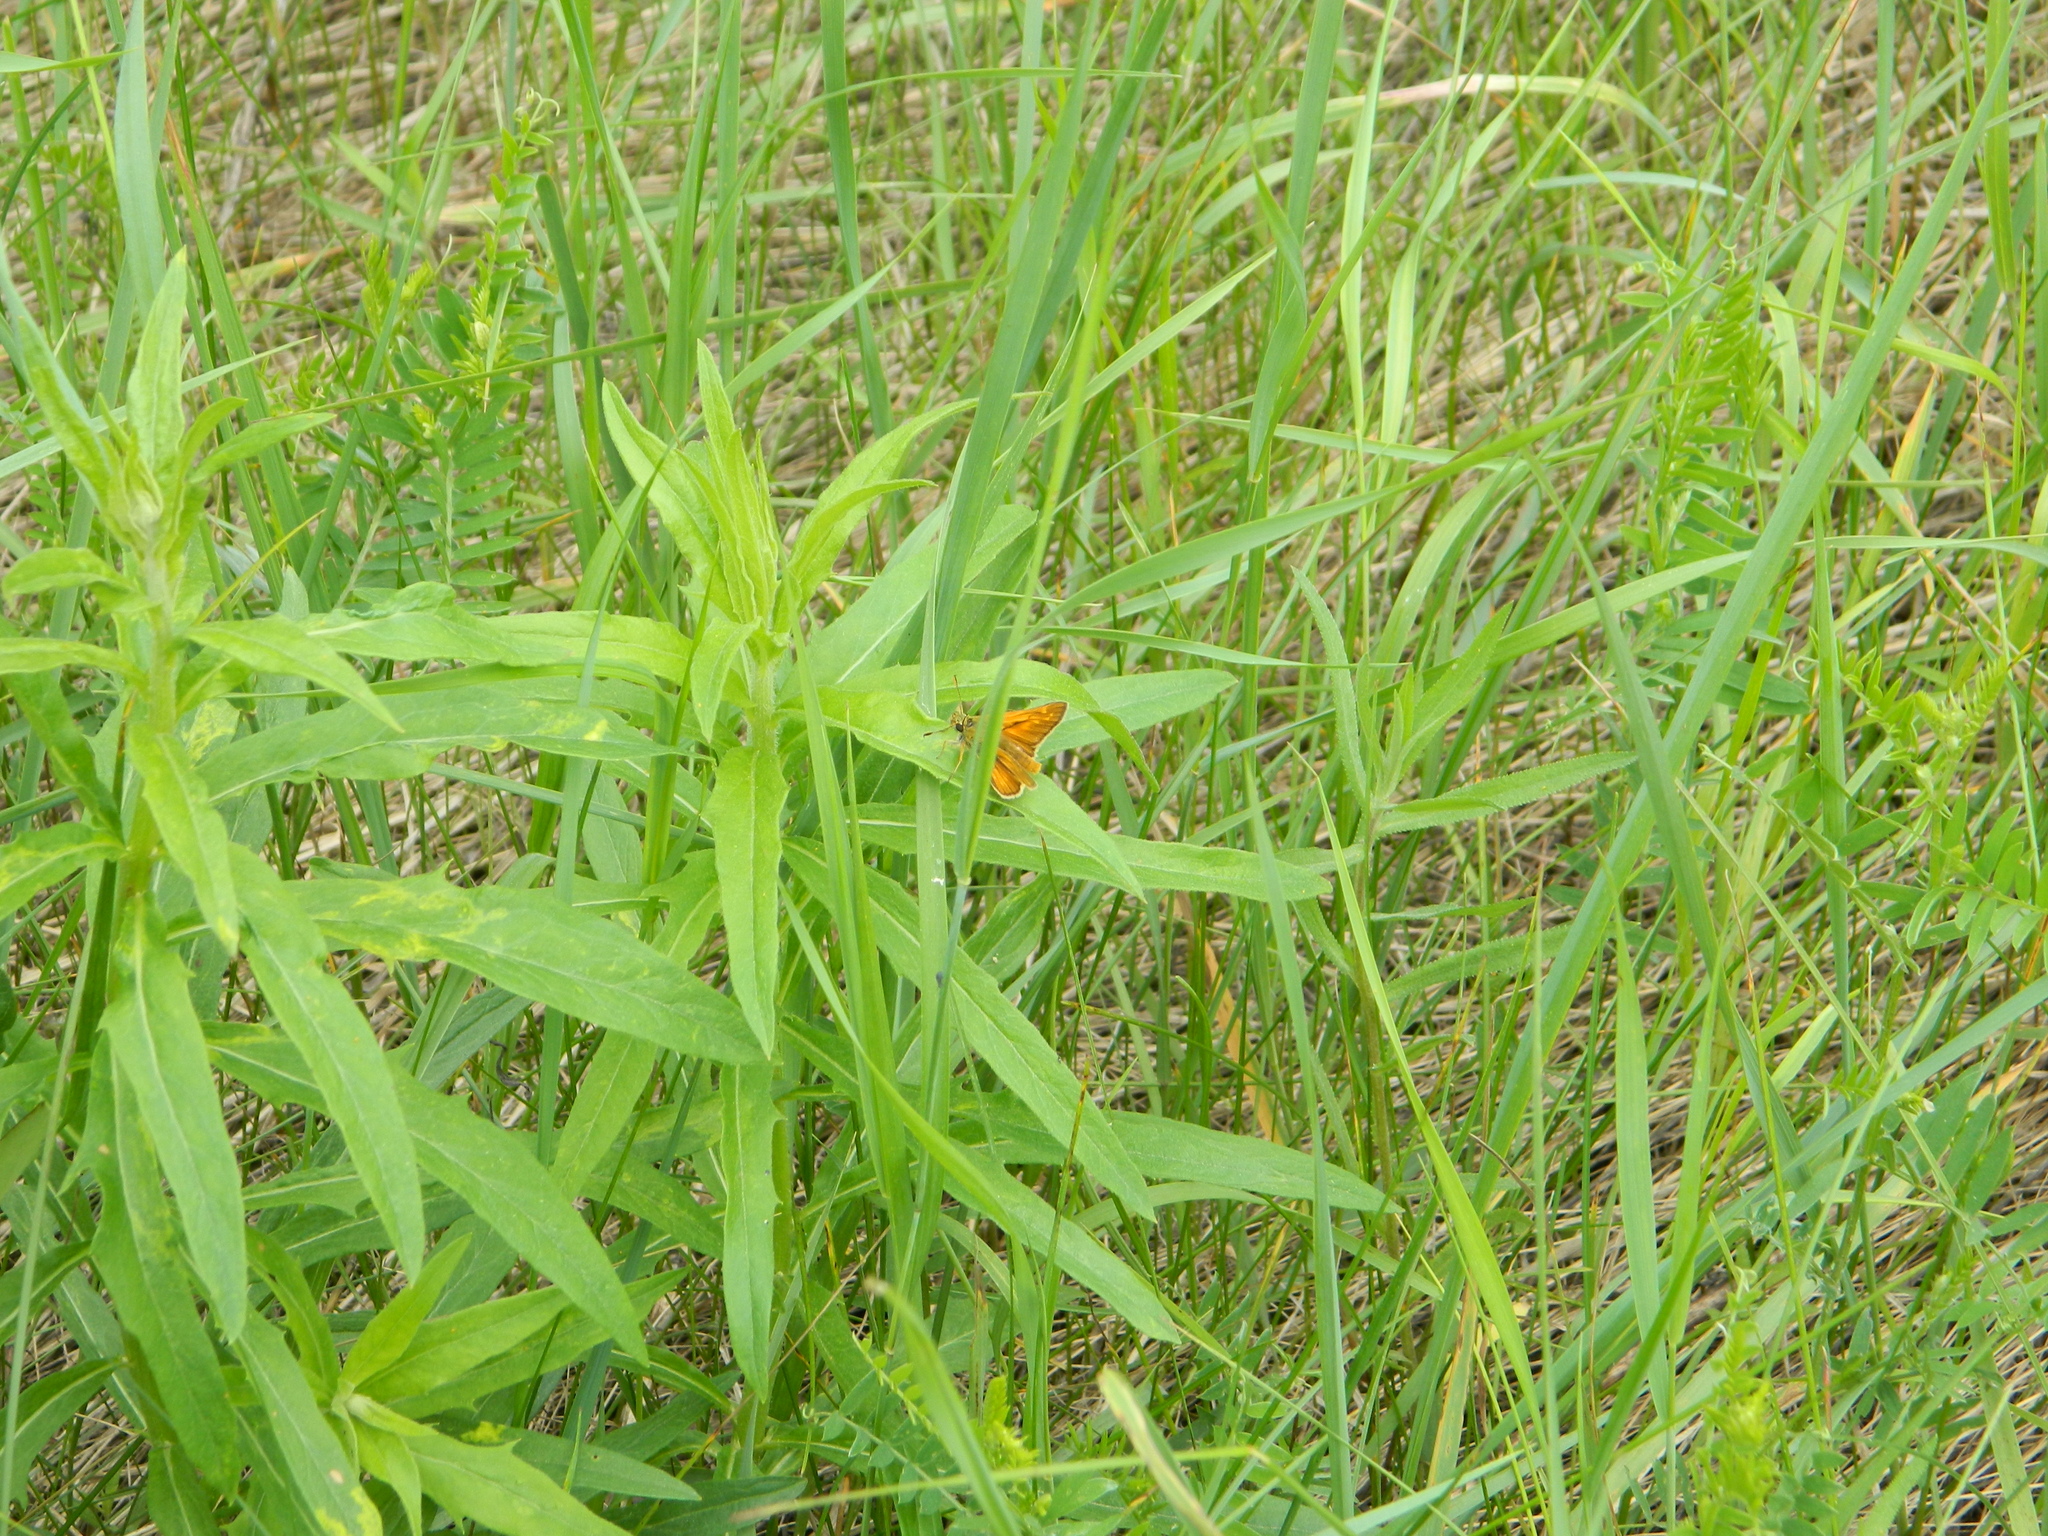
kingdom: Animalia
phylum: Arthropoda
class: Insecta
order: Lepidoptera
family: Hesperiidae
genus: Ochlodes
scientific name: Ochlodes venata
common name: Large skipper
